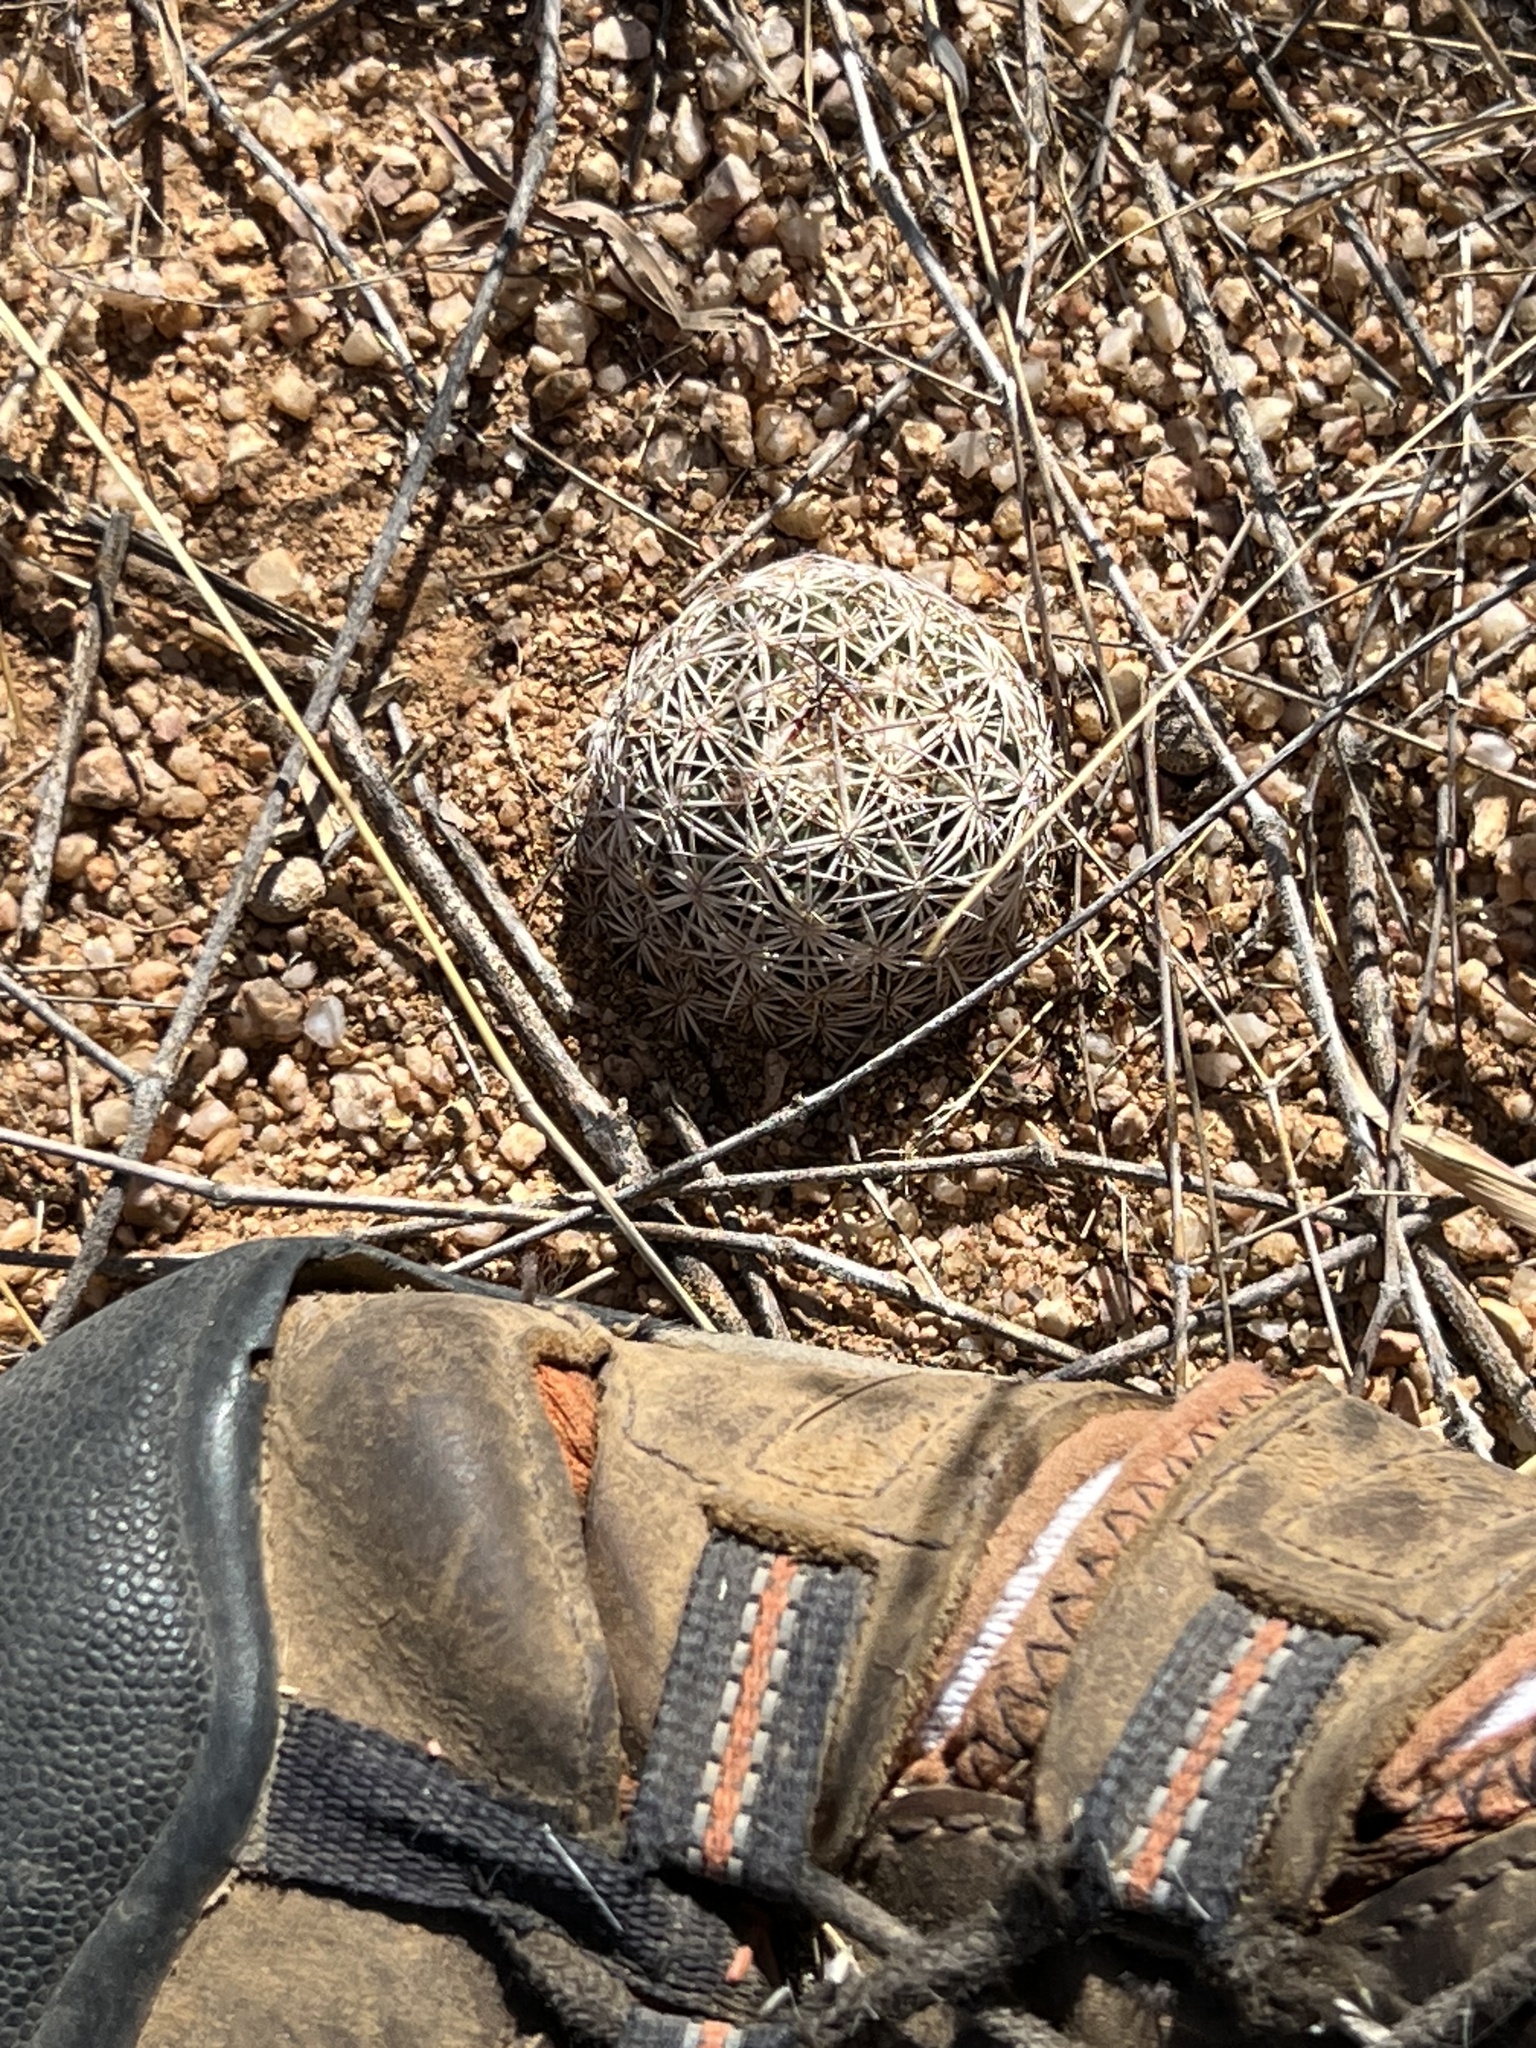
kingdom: Plantae
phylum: Tracheophyta
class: Magnoliopsida
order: Caryophyllales
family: Cactaceae
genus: Sclerocactus
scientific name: Sclerocactus johnsonii
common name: Eight-spine fishhook cactus
